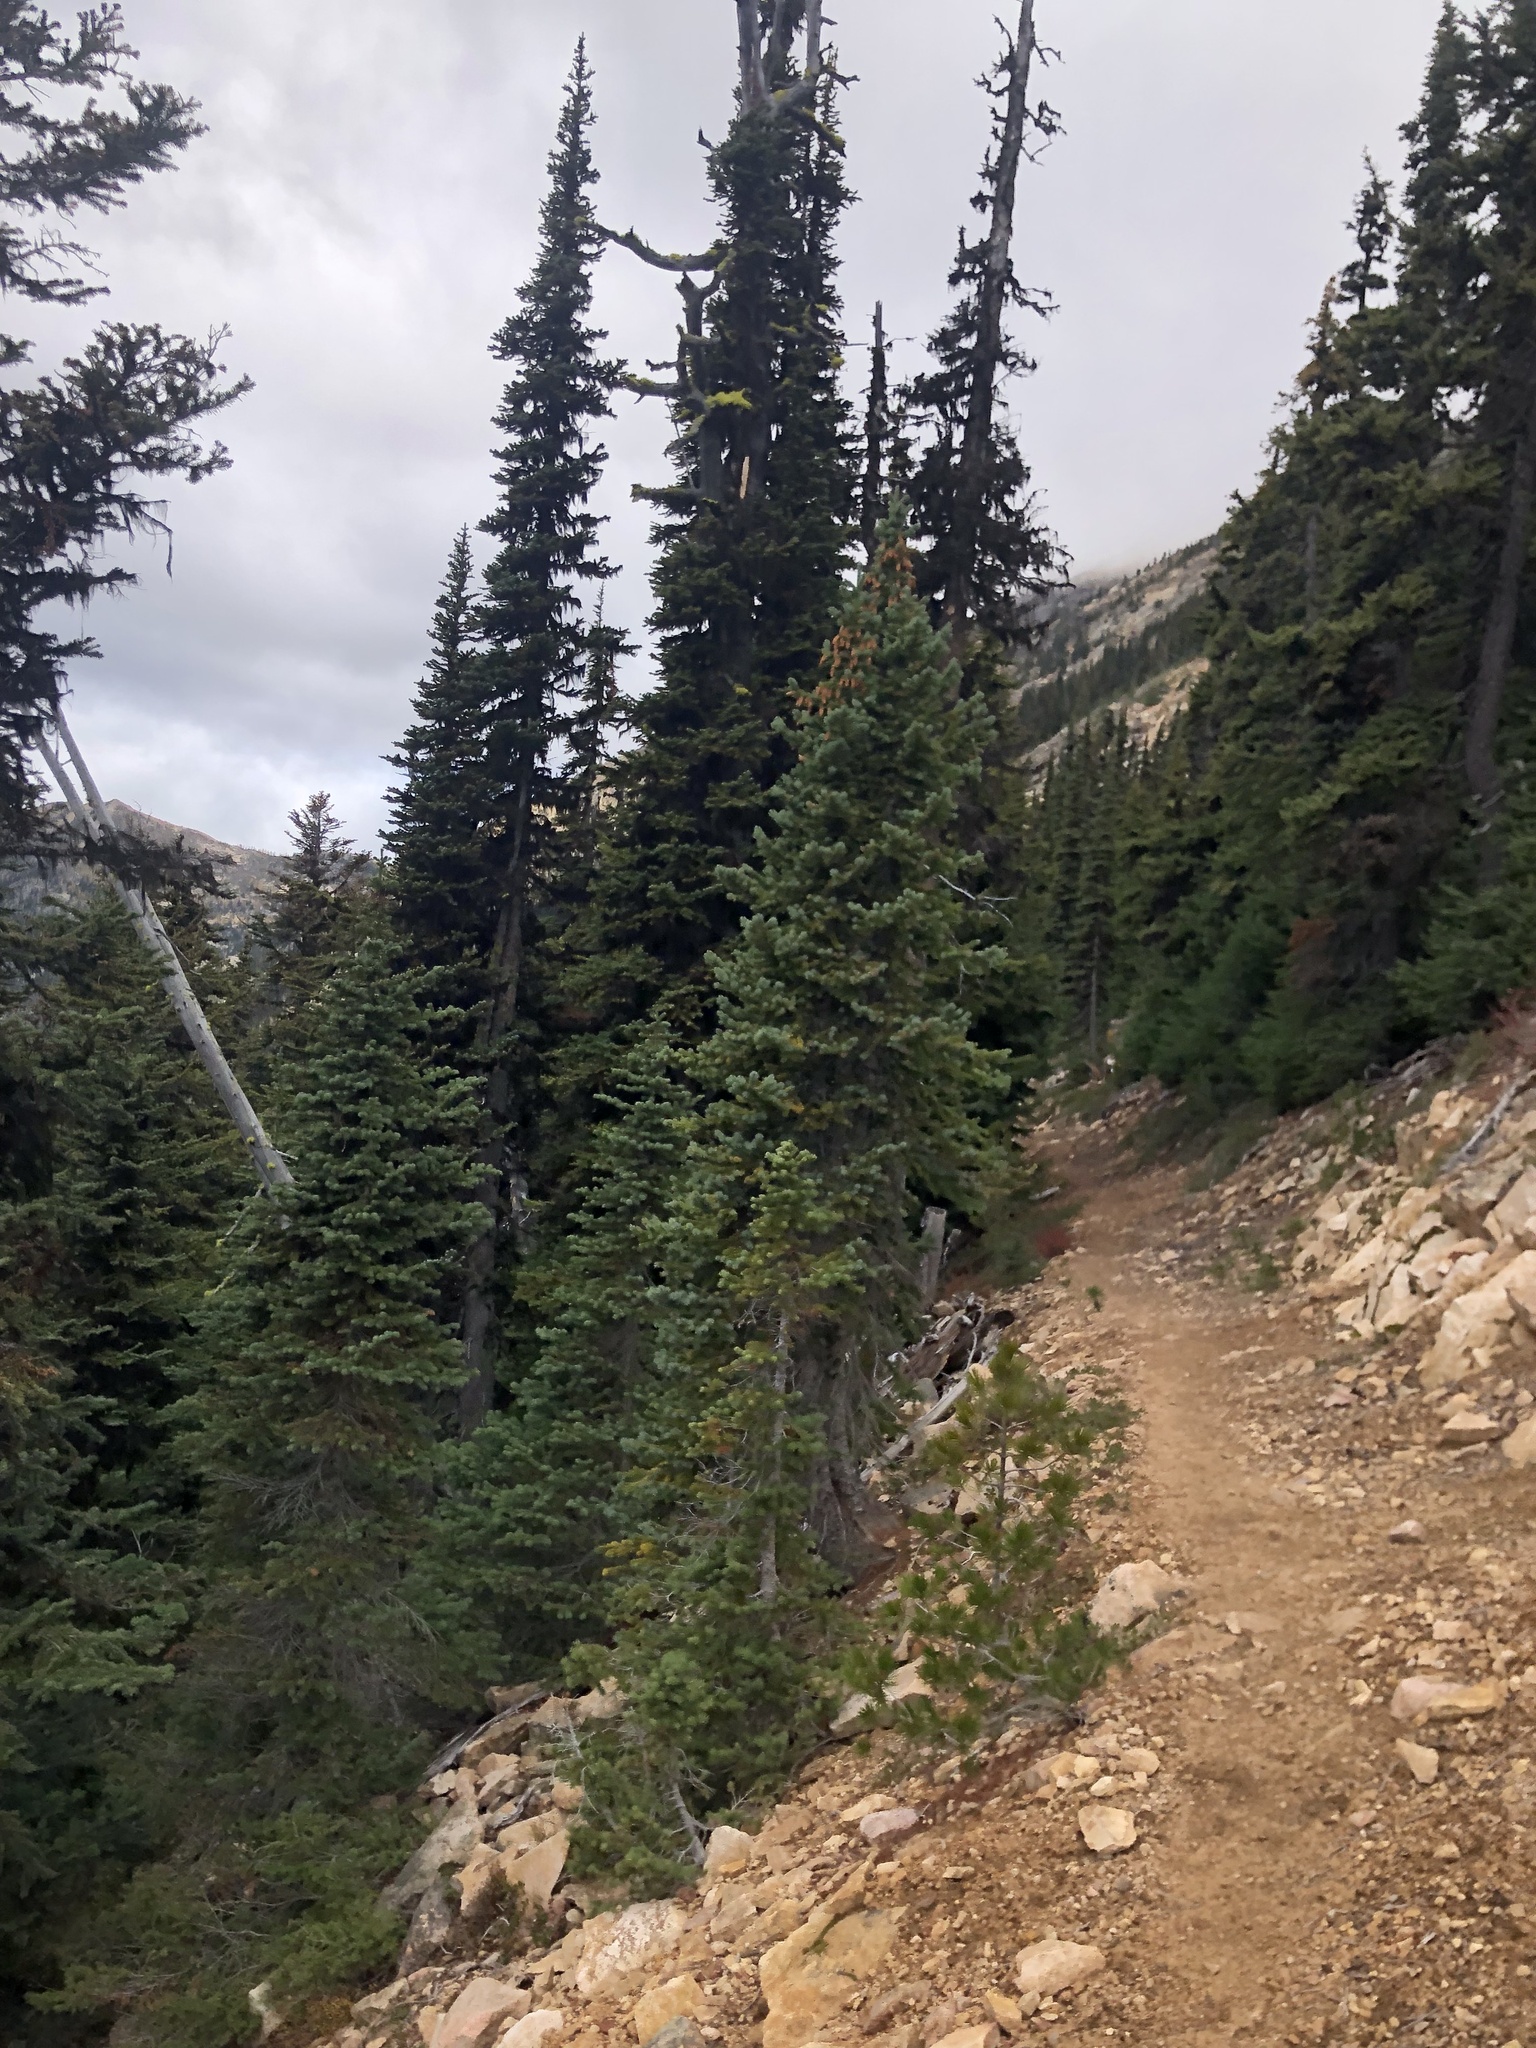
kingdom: Plantae
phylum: Tracheophyta
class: Pinopsida
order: Pinales
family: Pinaceae
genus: Picea
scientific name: Picea engelmannii
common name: Engelmann spruce
